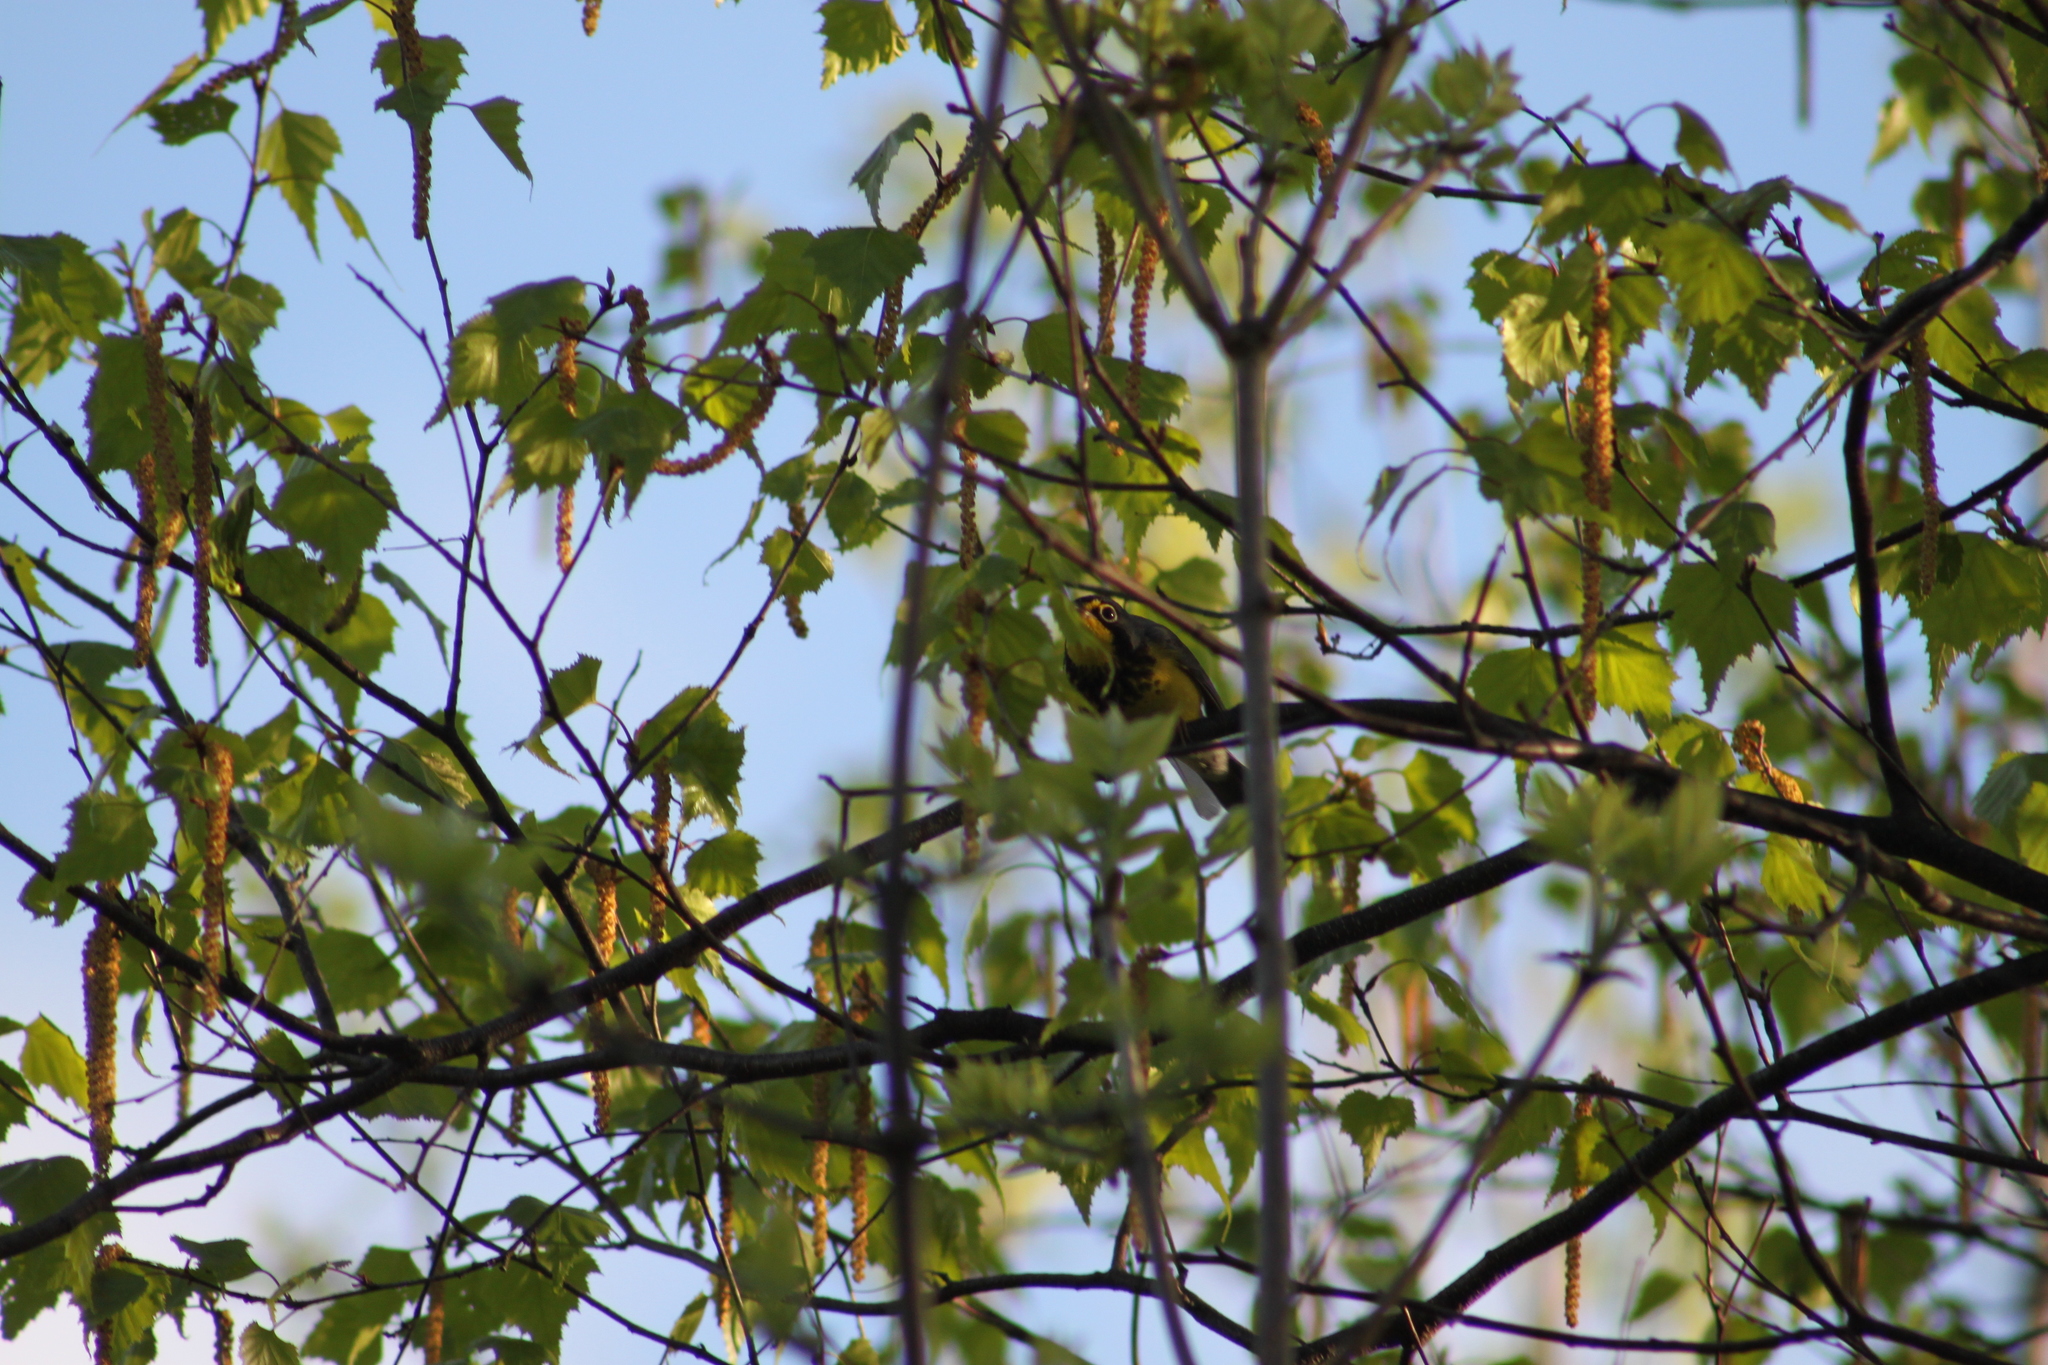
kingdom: Animalia
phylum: Chordata
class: Aves
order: Passeriformes
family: Parulidae
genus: Cardellina
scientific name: Cardellina canadensis
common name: Canada warbler
